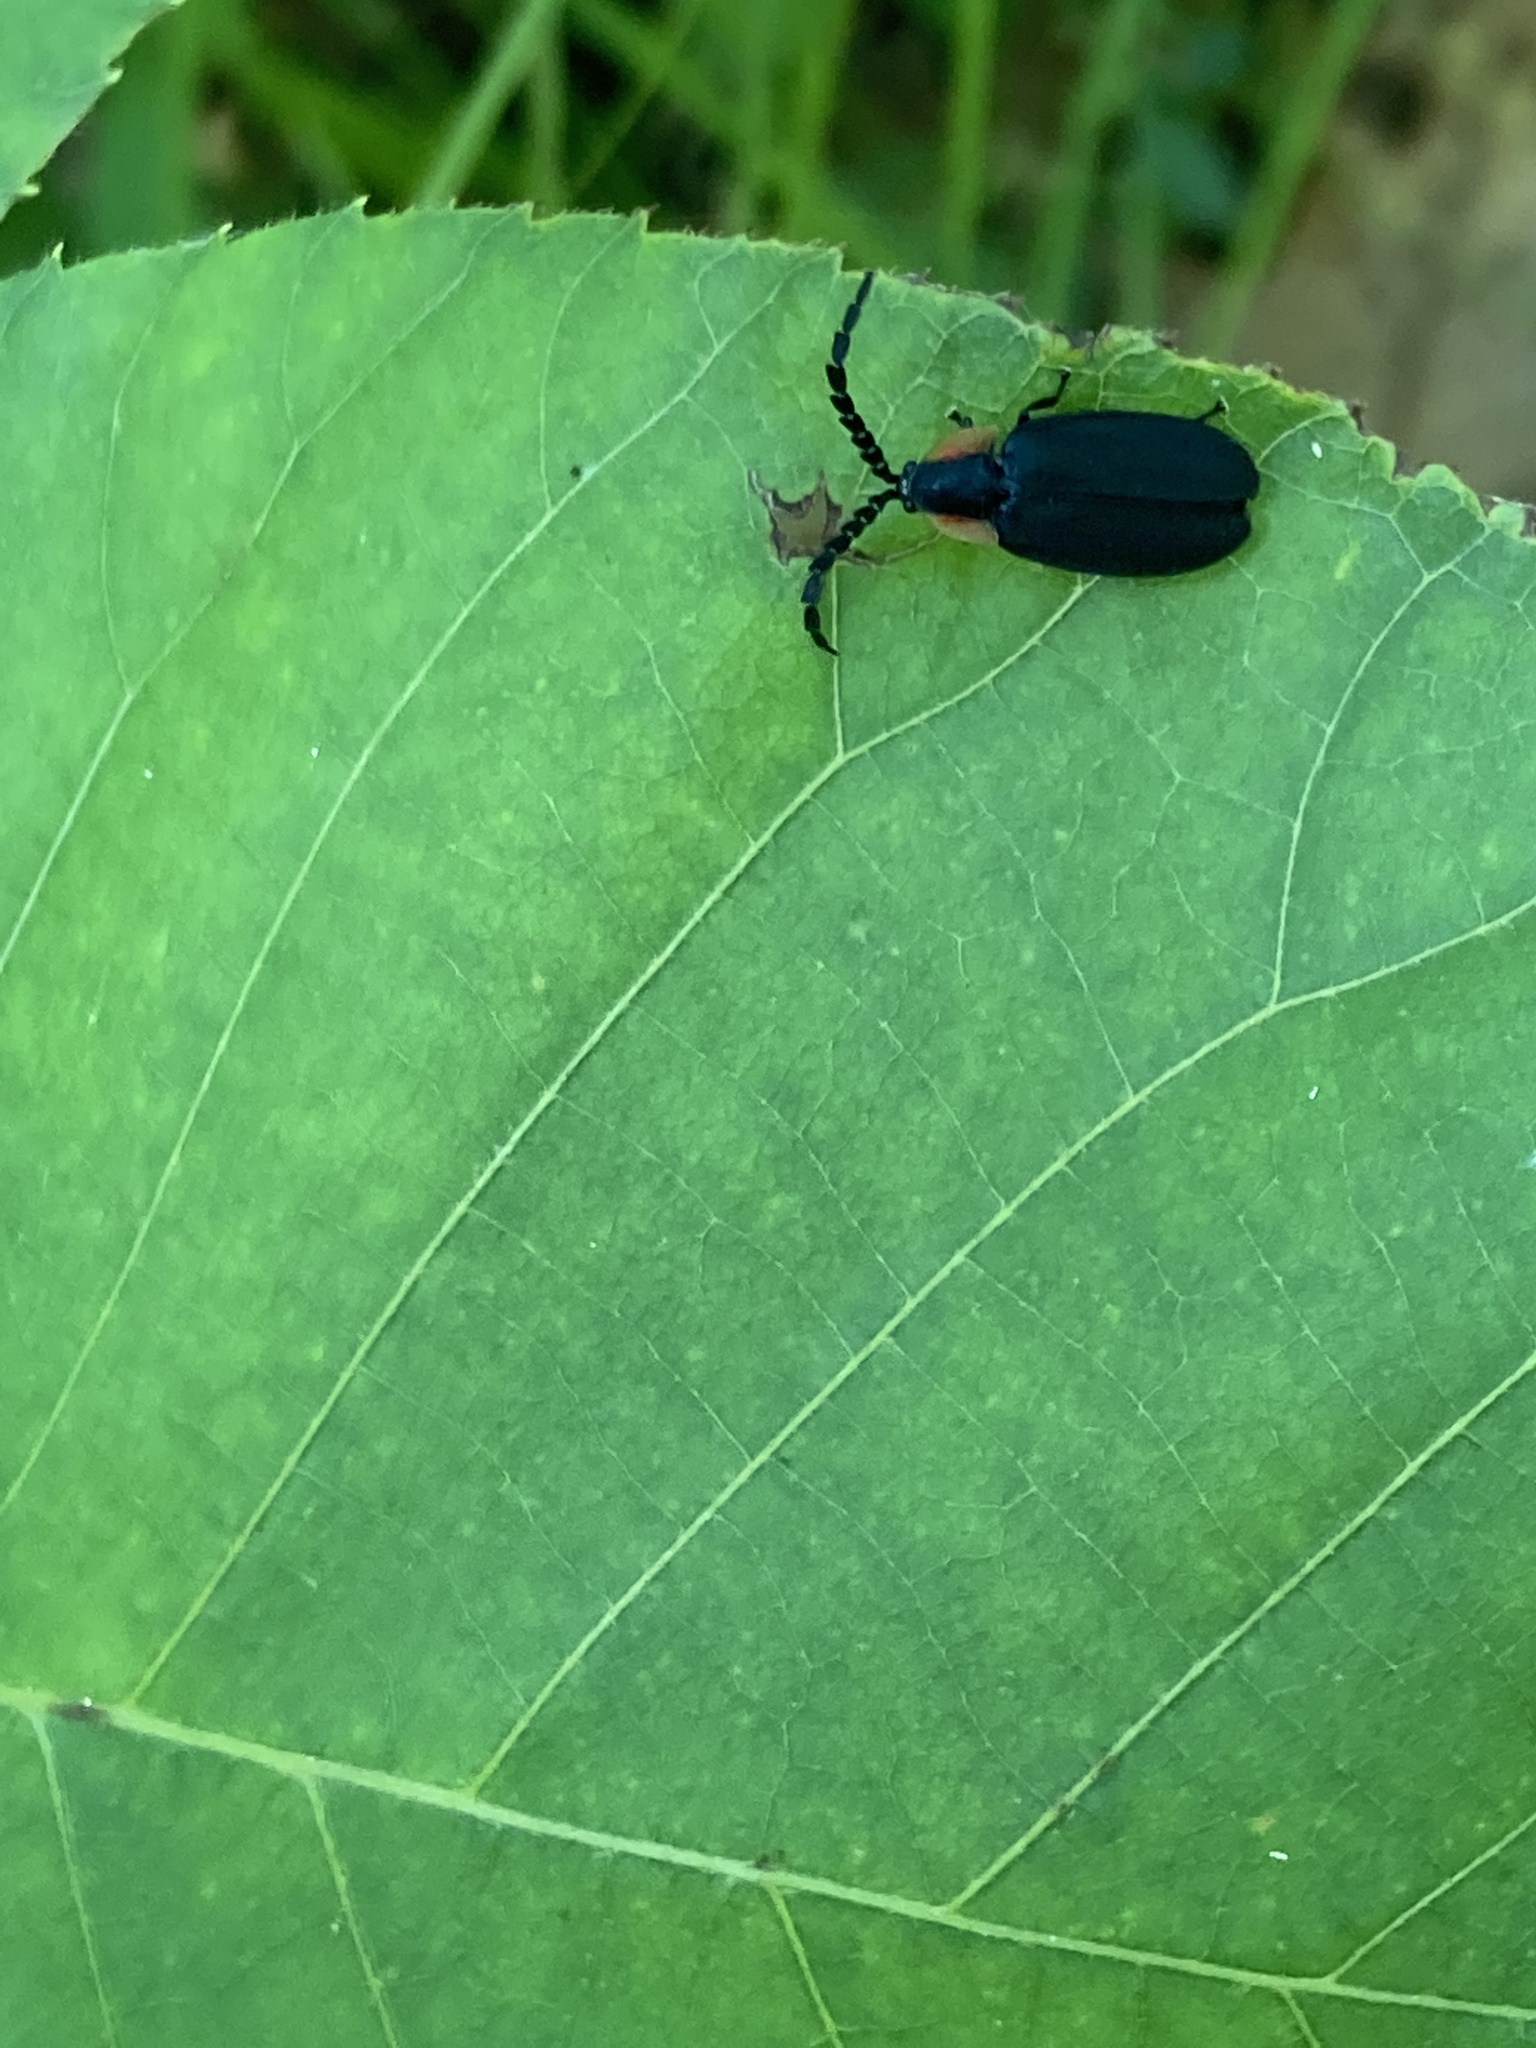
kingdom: Animalia
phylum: Arthropoda
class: Insecta
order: Coleoptera
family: Lampyridae
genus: Lucidota
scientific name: Lucidota atra
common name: Black firefly
